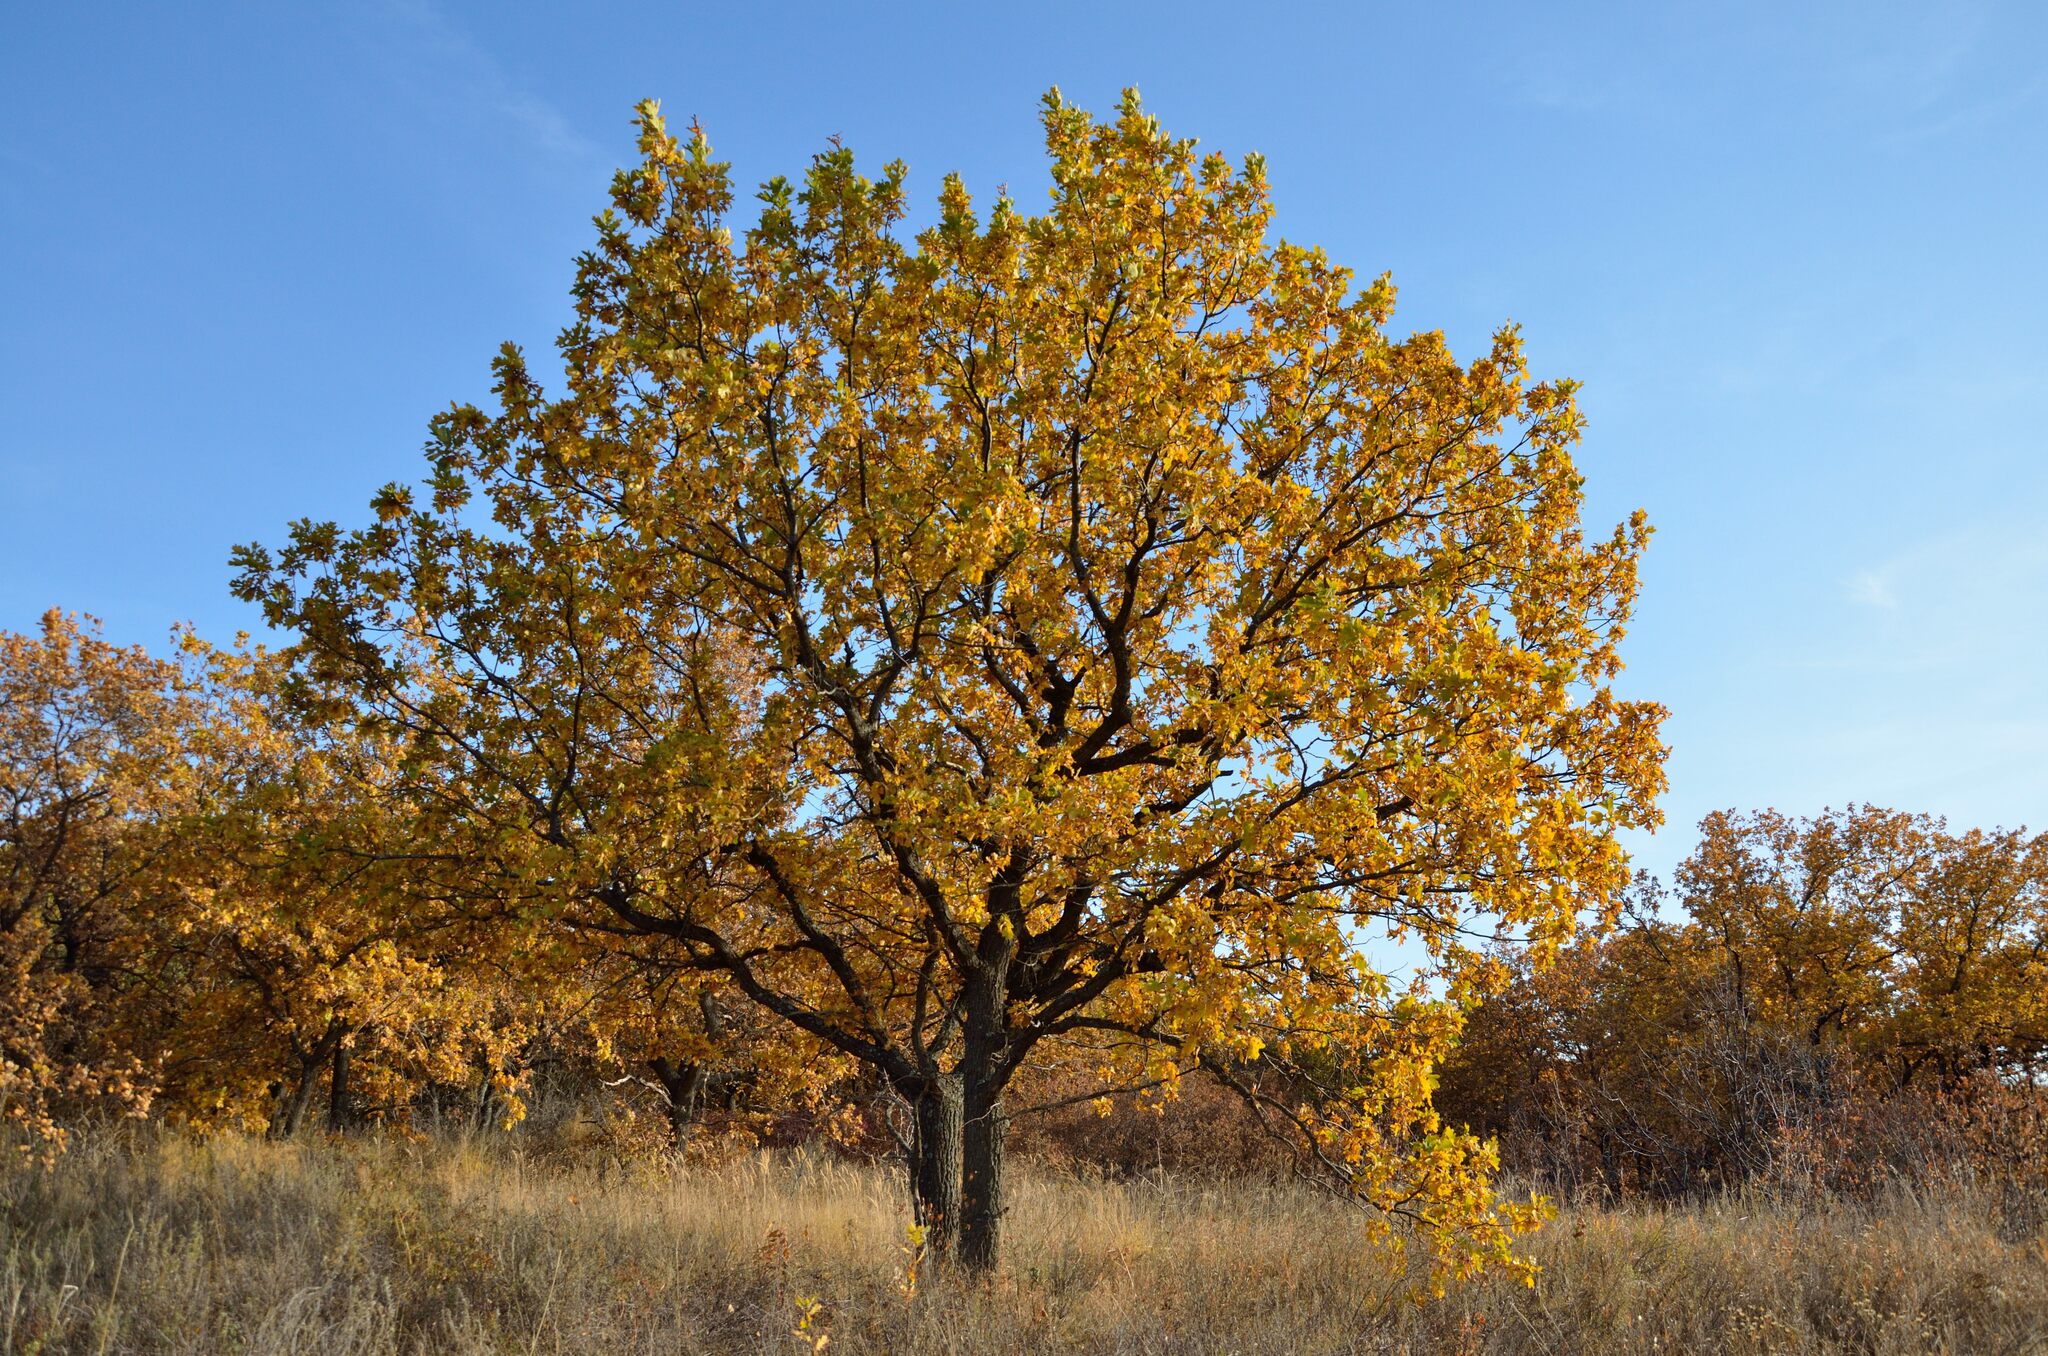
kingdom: Plantae
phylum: Tracheophyta
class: Magnoliopsida
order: Fagales
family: Fagaceae
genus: Quercus
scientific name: Quercus robur
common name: Pedunculate oak
